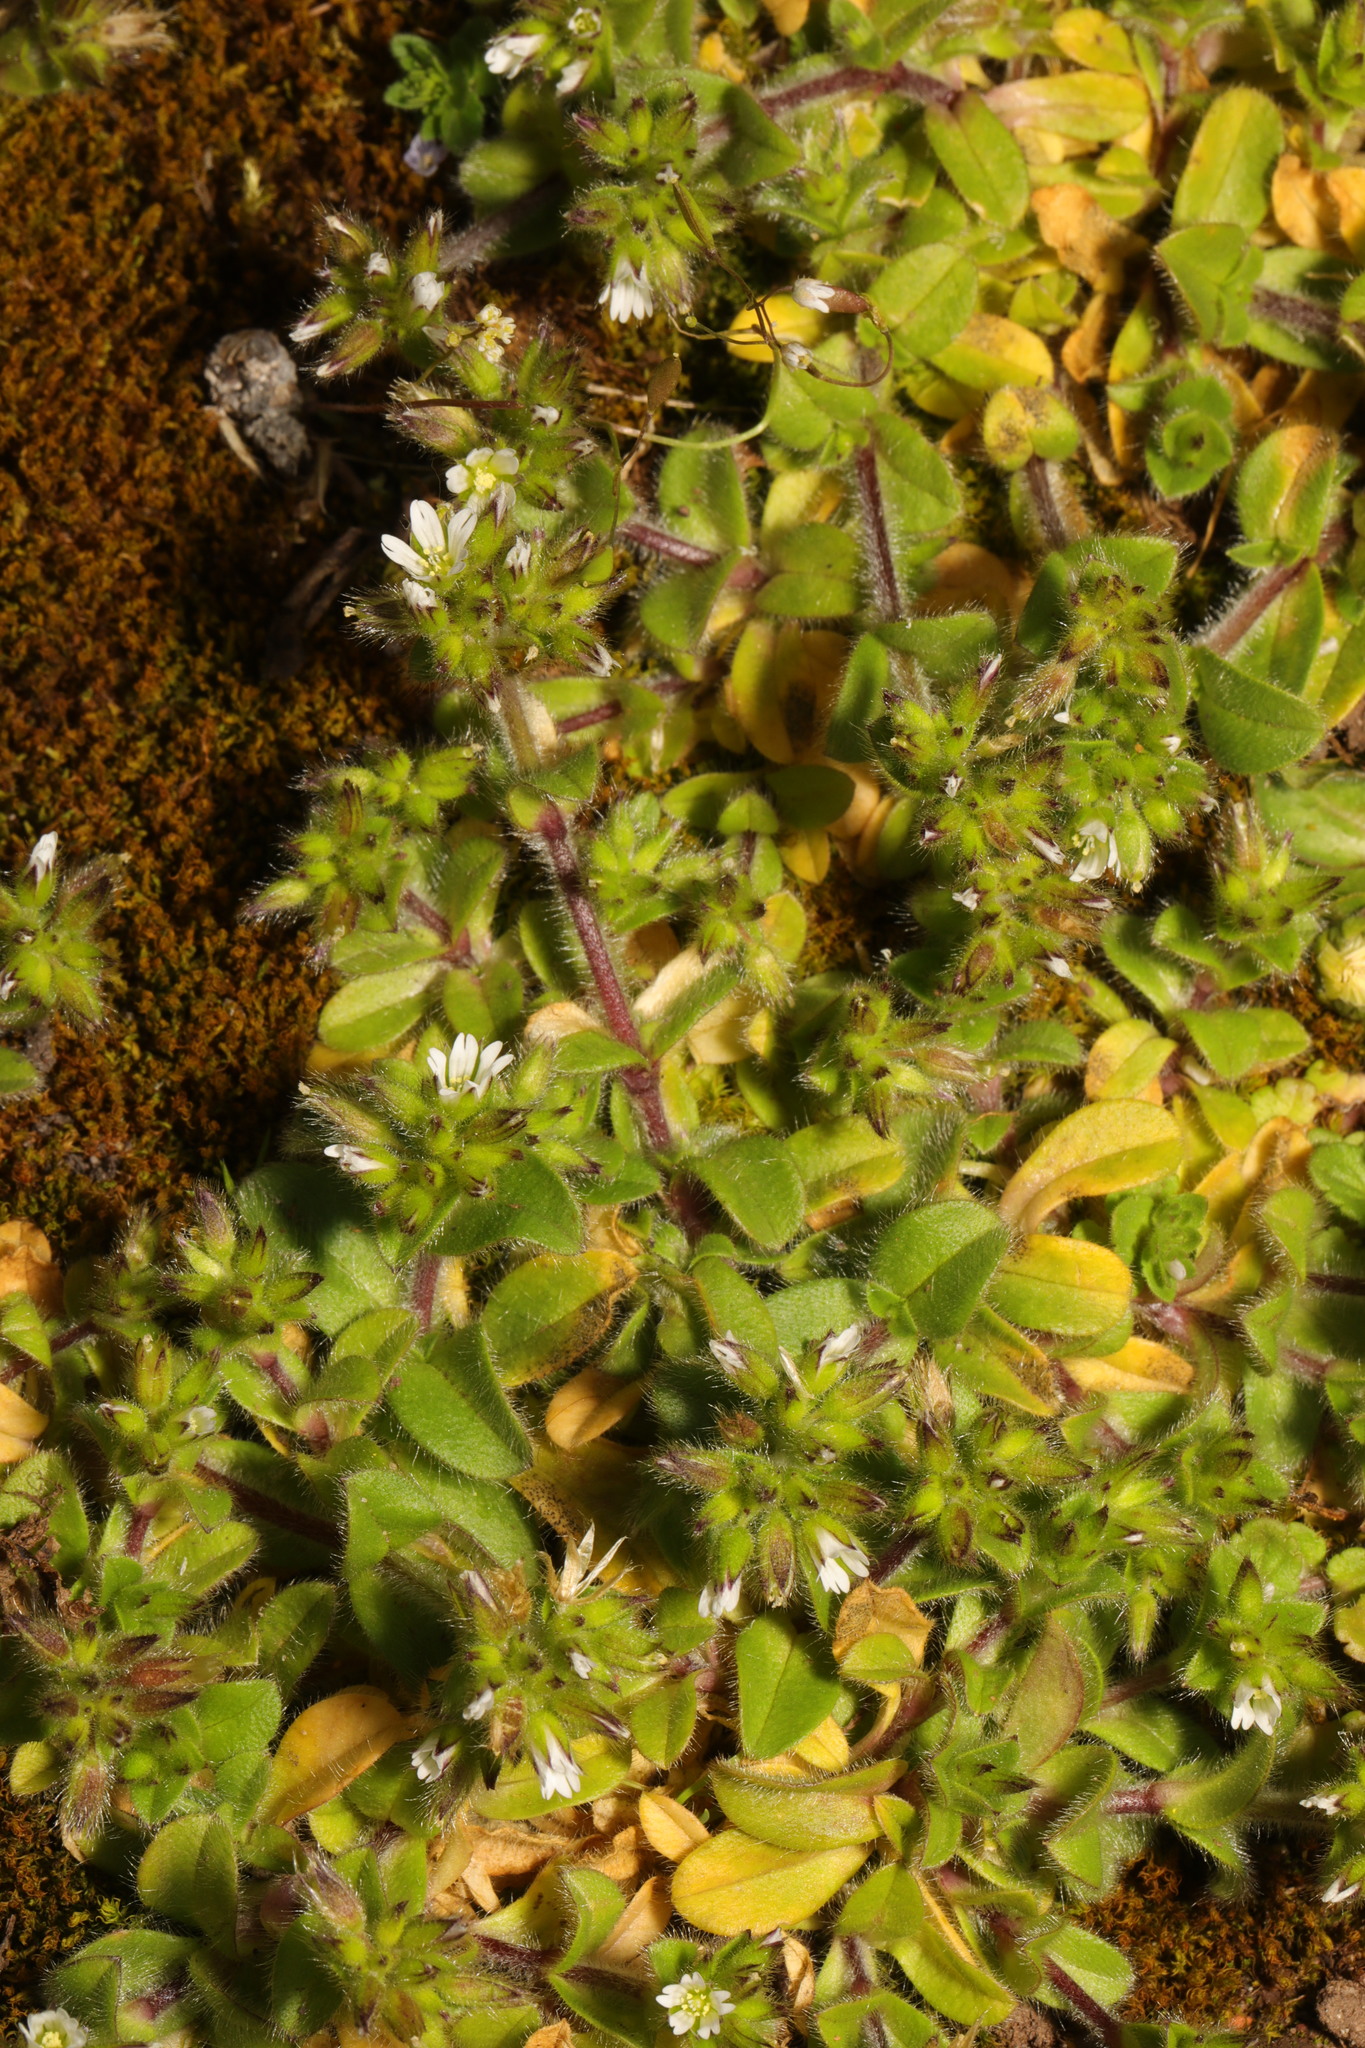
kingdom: Plantae
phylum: Tracheophyta
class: Magnoliopsida
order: Caryophyllales
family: Caryophyllaceae
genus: Cerastium
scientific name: Cerastium glomeratum
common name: Sticky chickweed
